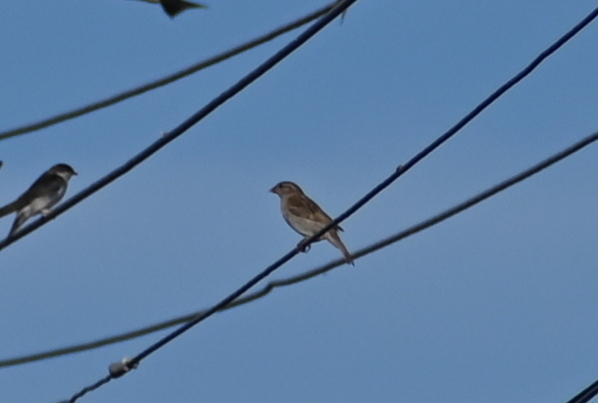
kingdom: Animalia
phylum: Chordata
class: Aves
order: Passeriformes
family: Passeridae
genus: Passer
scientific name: Passer domesticus
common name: House sparrow
